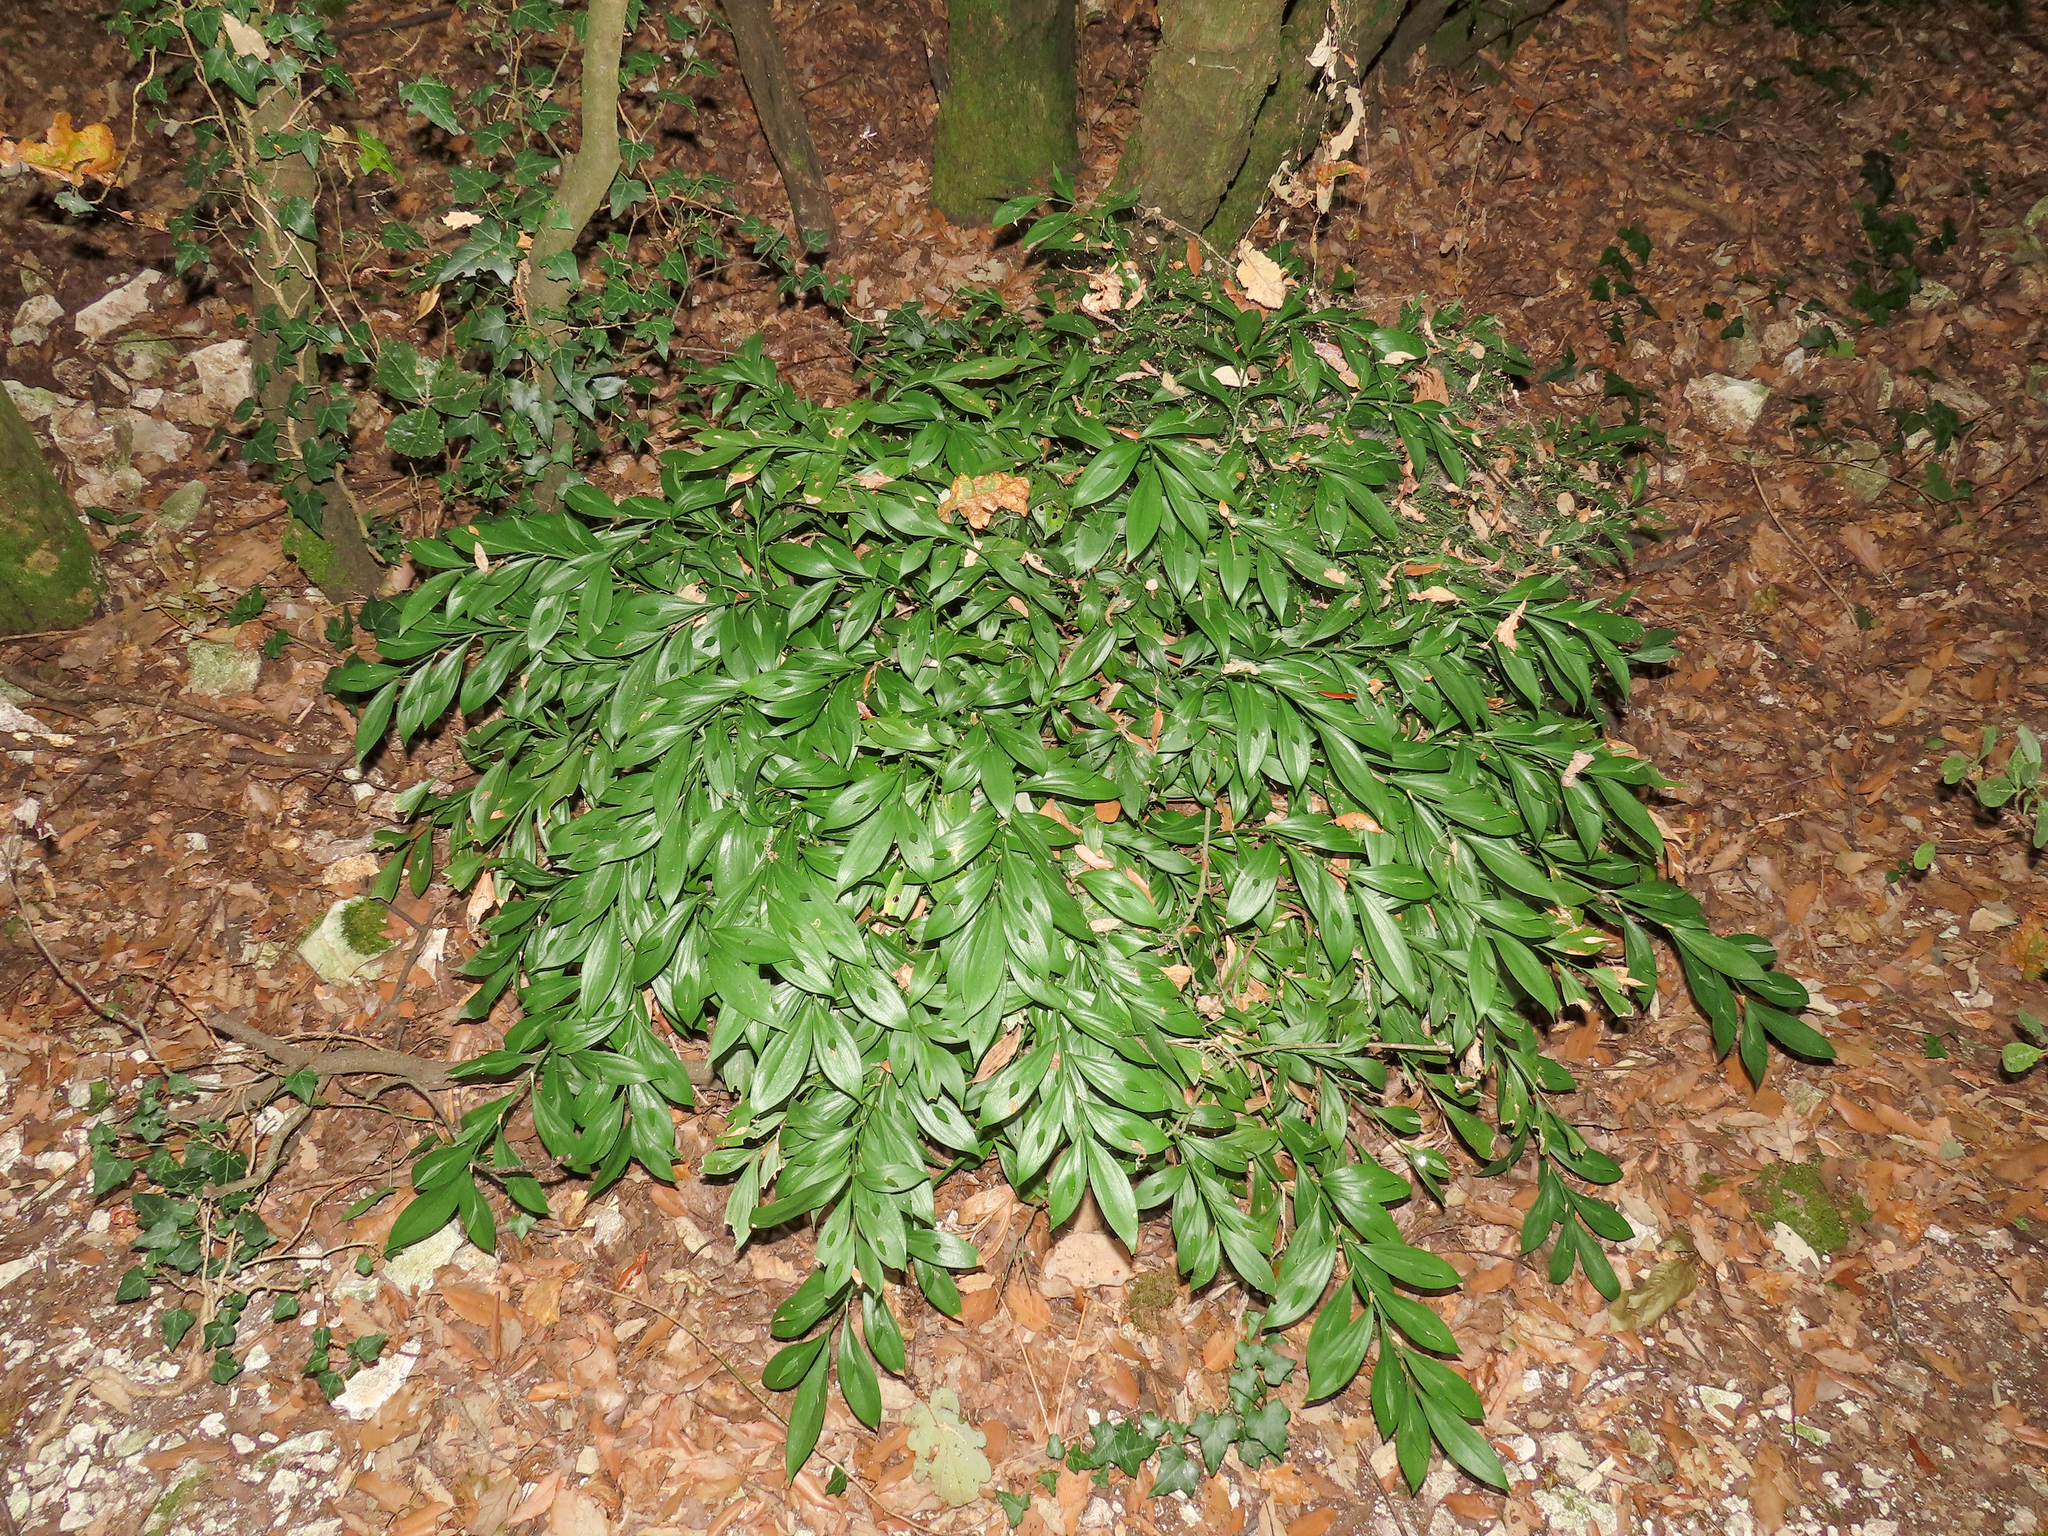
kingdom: Plantae
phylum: Tracheophyta
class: Liliopsida
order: Asparagales
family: Asparagaceae
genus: Ruscus
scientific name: Ruscus hypoglossum
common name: Spineless butcher's-broom
